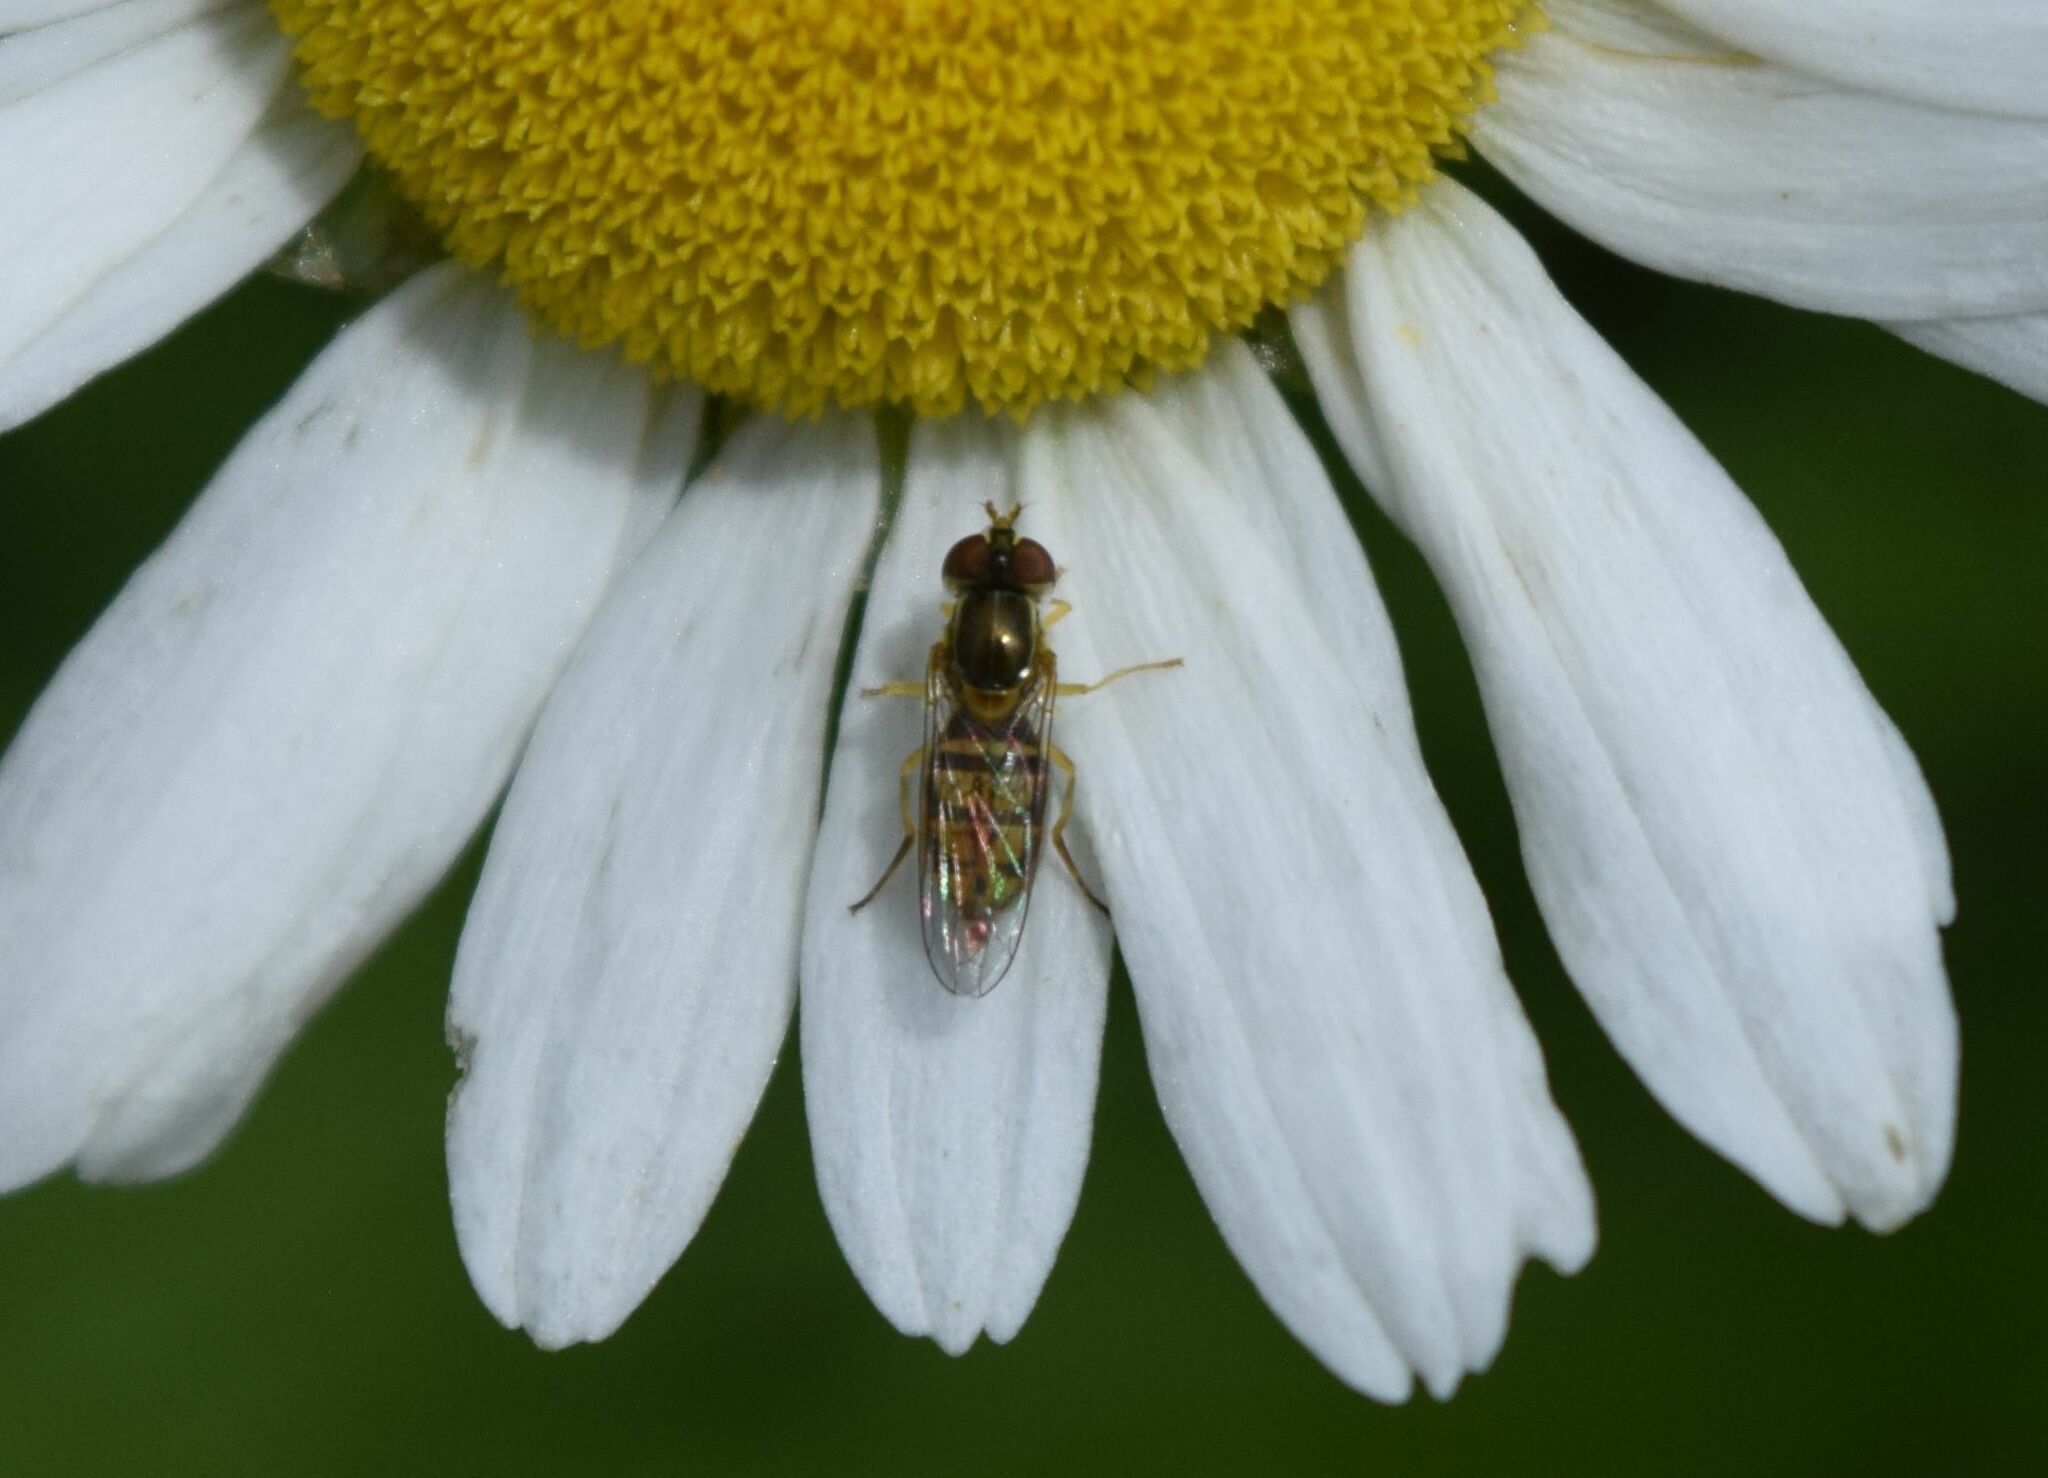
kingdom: Animalia
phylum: Arthropoda
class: Insecta
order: Diptera
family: Syrphidae
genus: Toxomerus
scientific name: Toxomerus marginatus
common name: Syrphid fly
